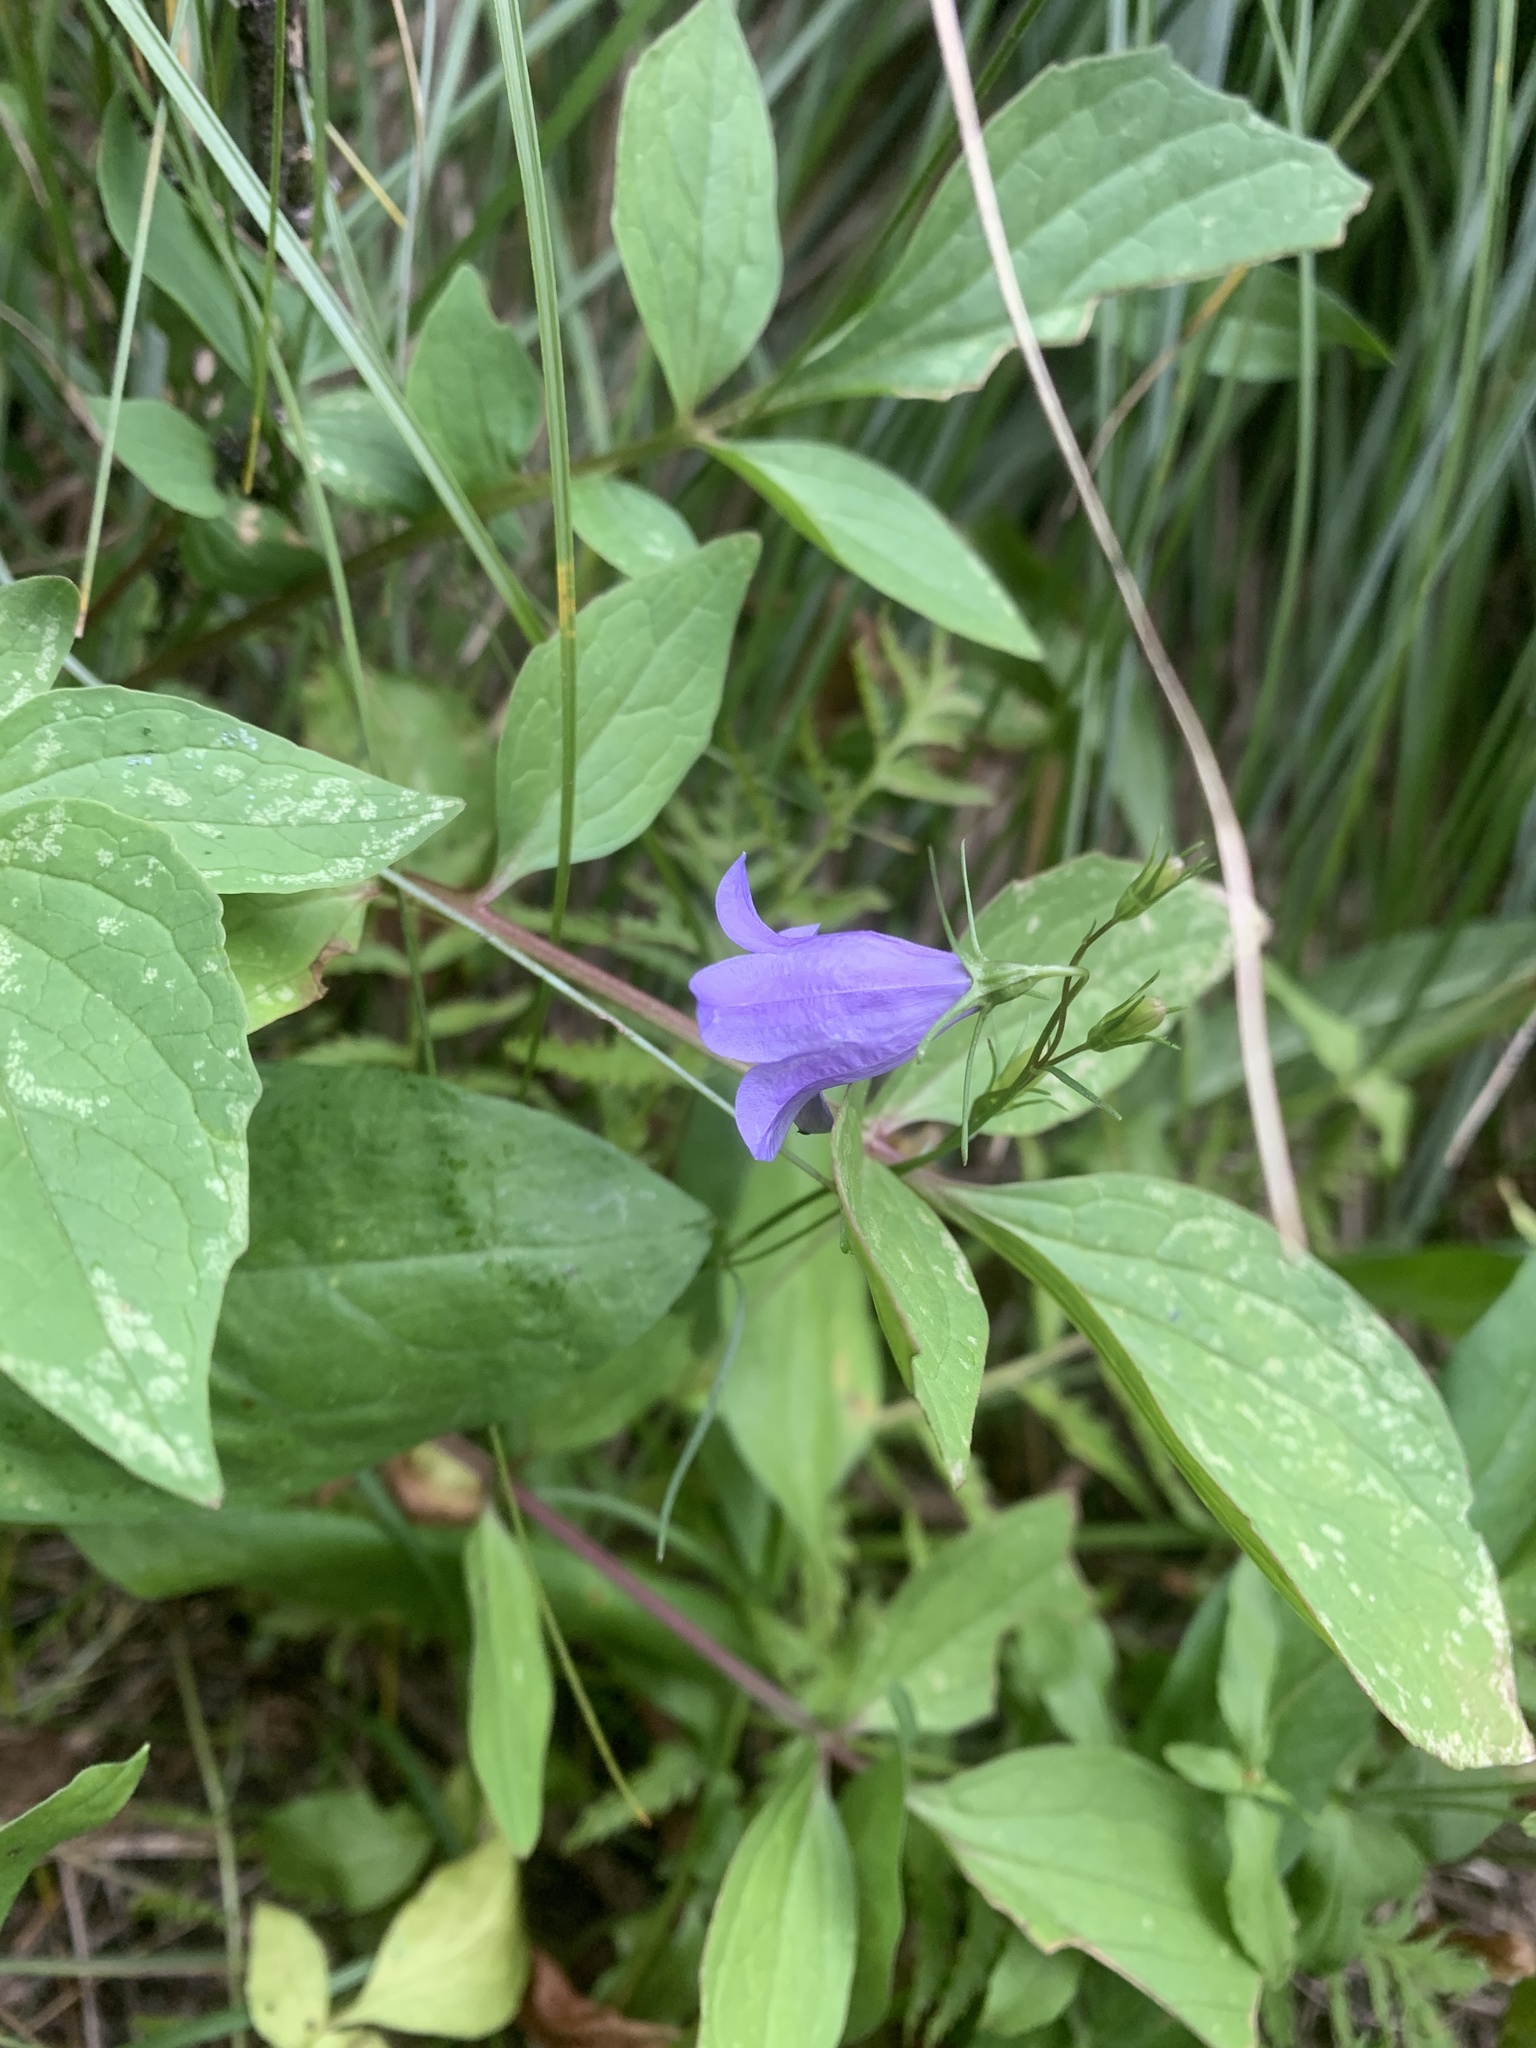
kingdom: Plantae
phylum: Tracheophyta
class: Magnoliopsida
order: Asterales
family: Campanulaceae
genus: Campanula
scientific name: Campanula alaskana
